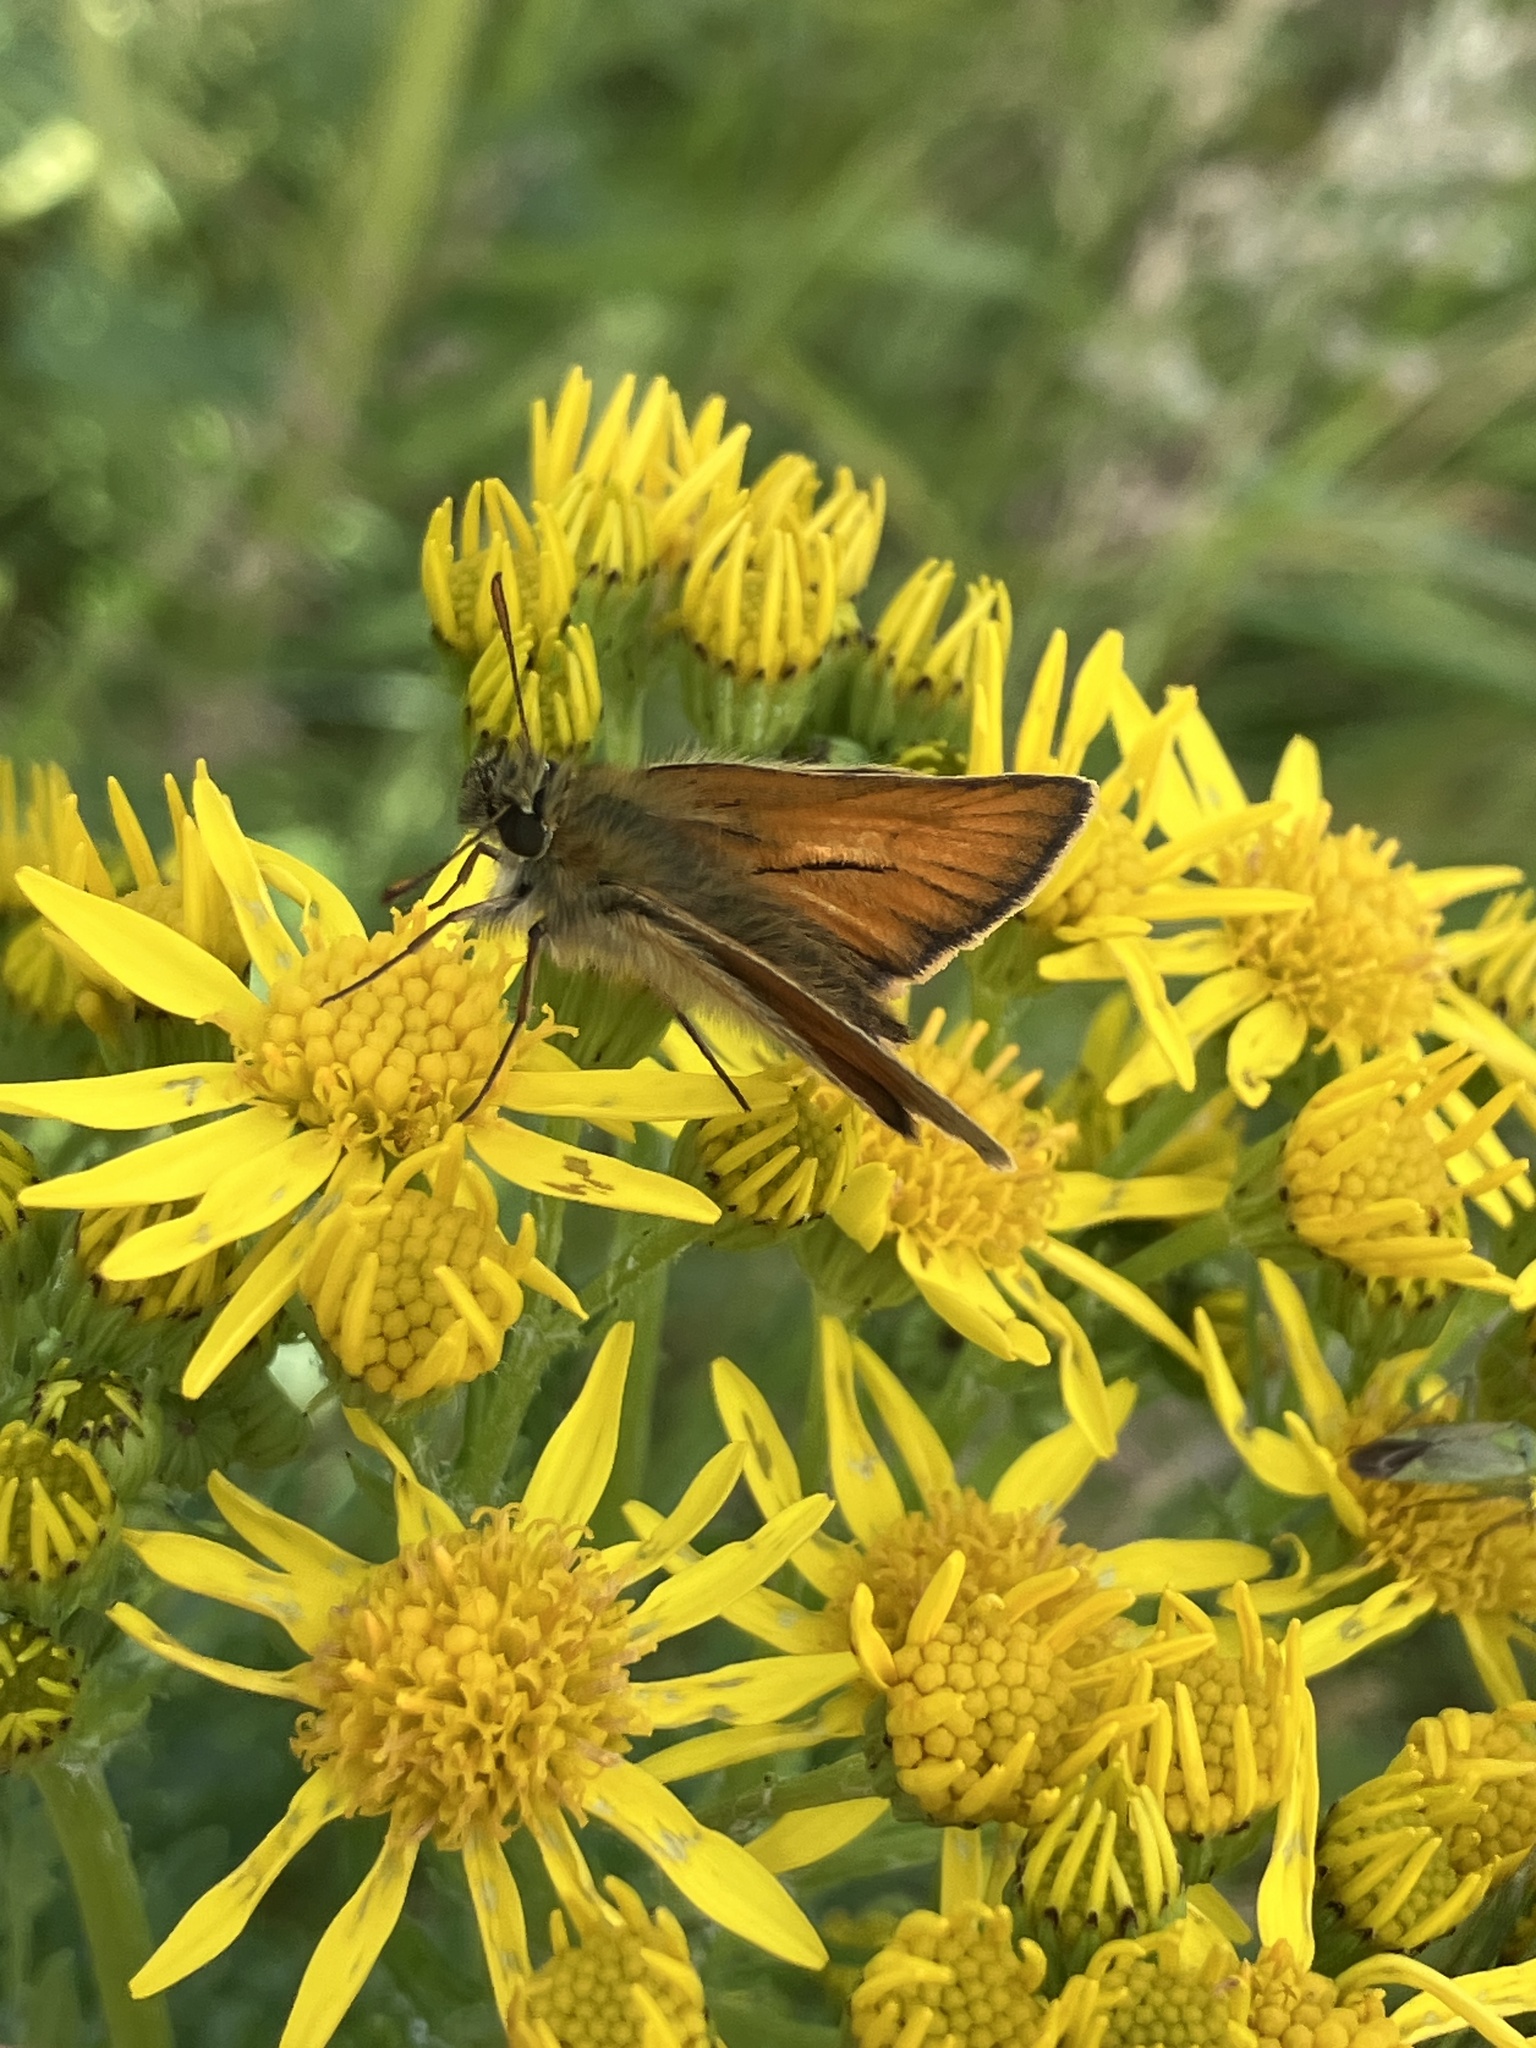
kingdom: Animalia
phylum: Arthropoda
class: Insecta
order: Lepidoptera
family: Hesperiidae
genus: Thymelicus
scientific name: Thymelicus sylvestris
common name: Small skipper
